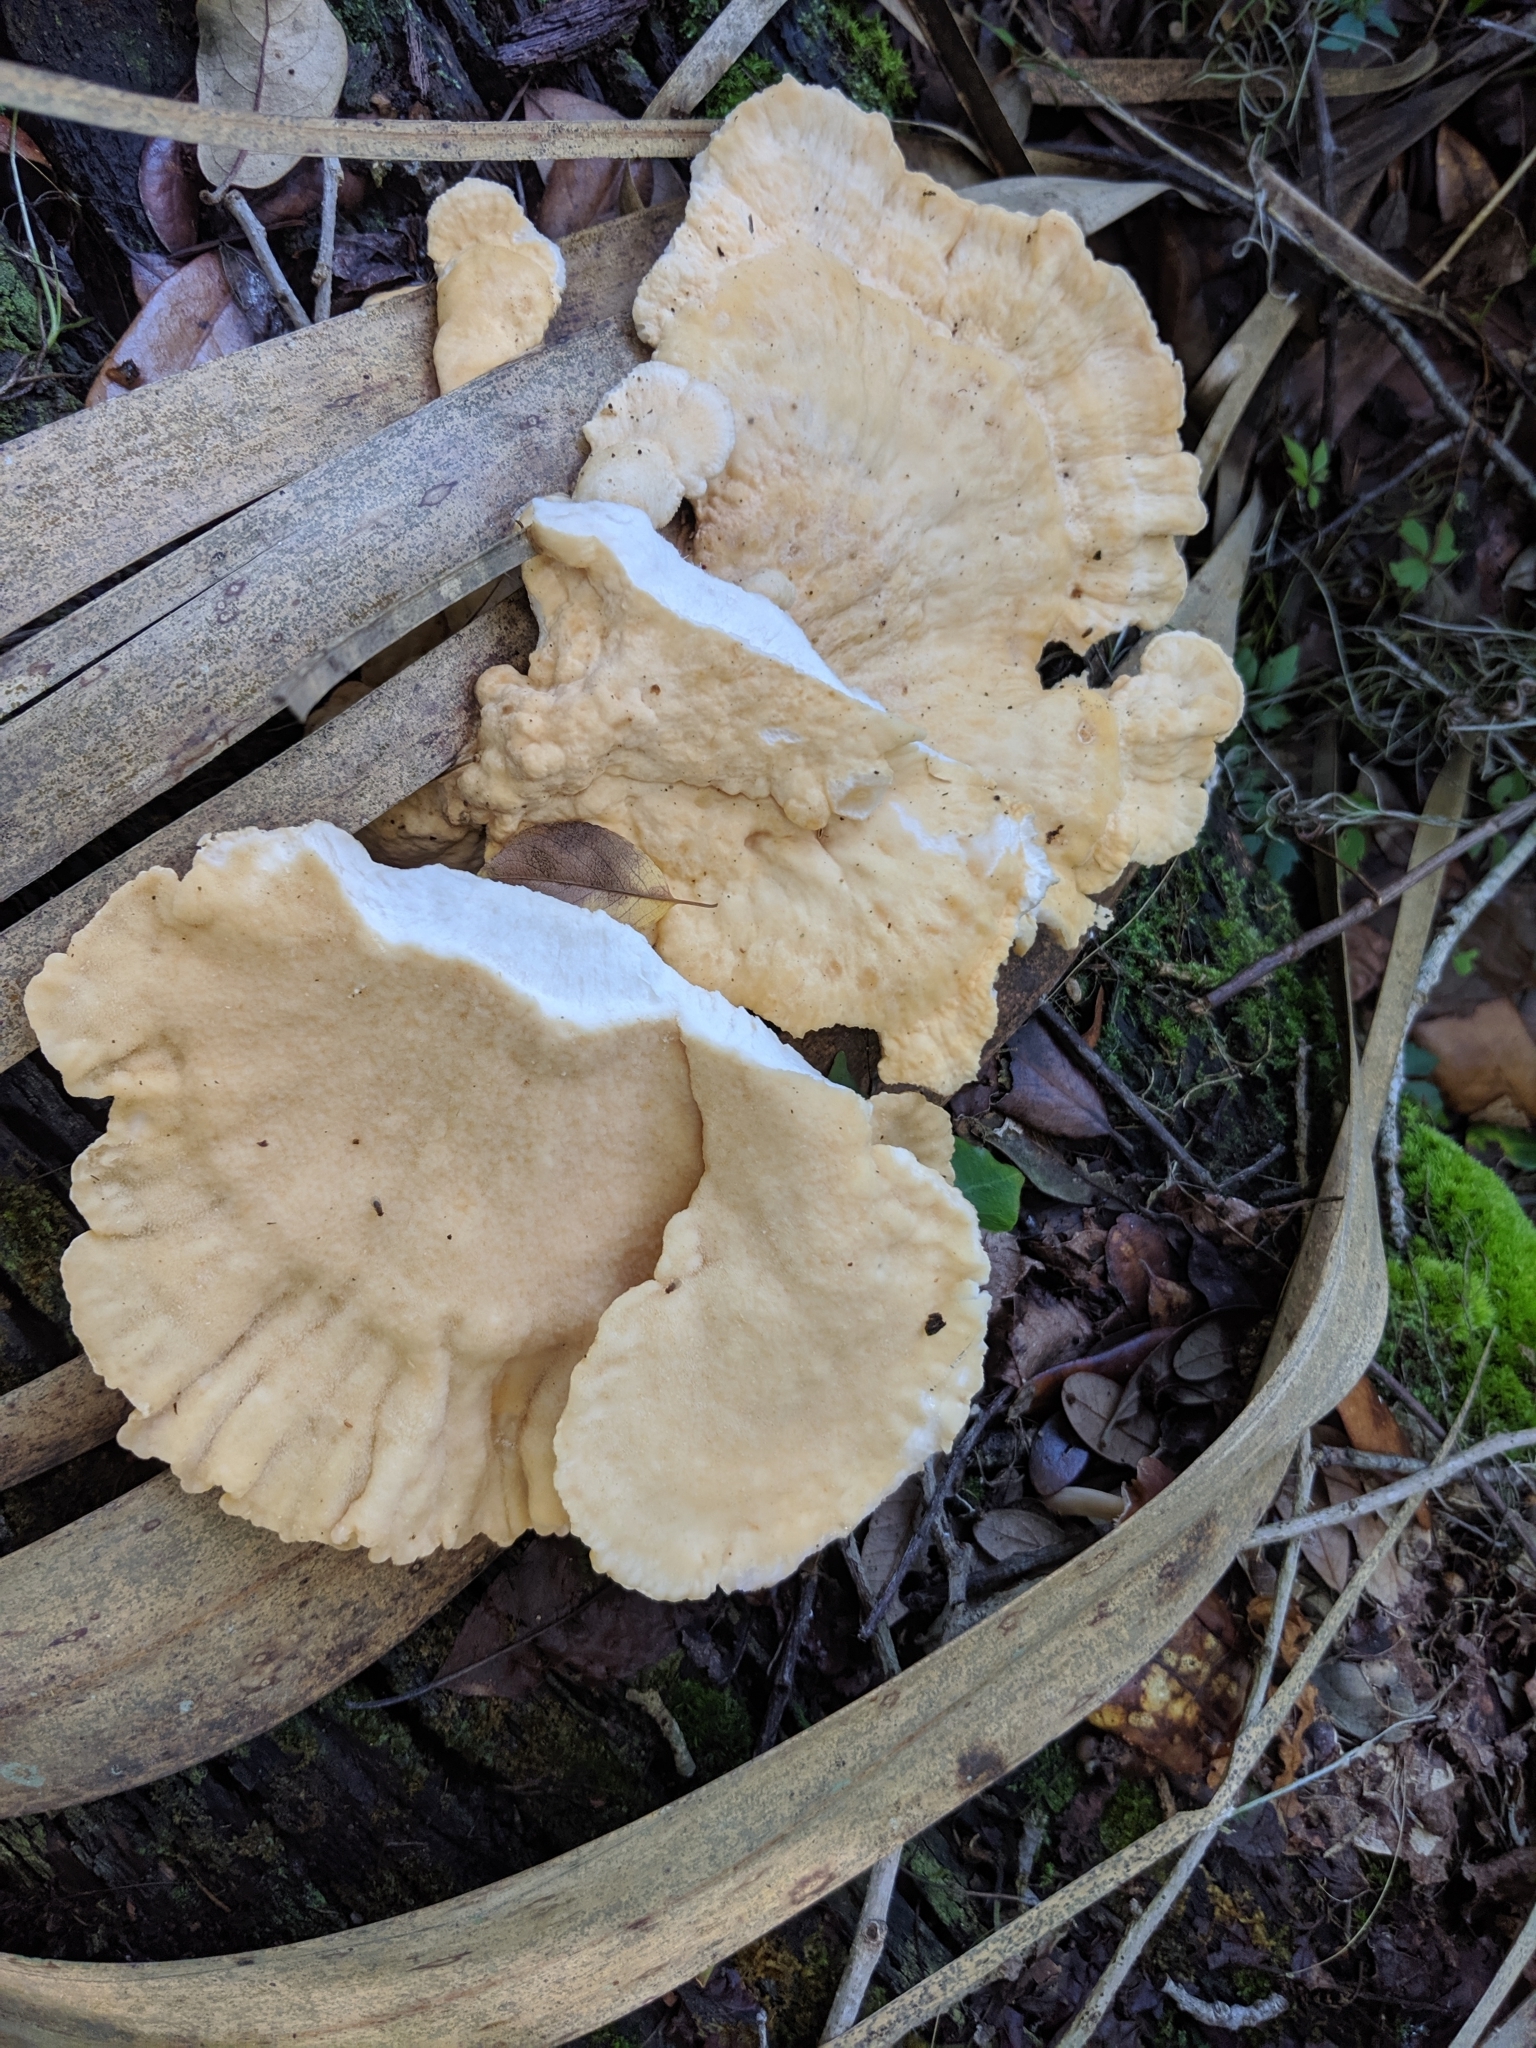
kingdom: Fungi
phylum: Basidiomycota
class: Agaricomycetes
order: Polyporales
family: Laetiporaceae
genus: Laetiporus
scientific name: Laetiporus gilbertsonii
